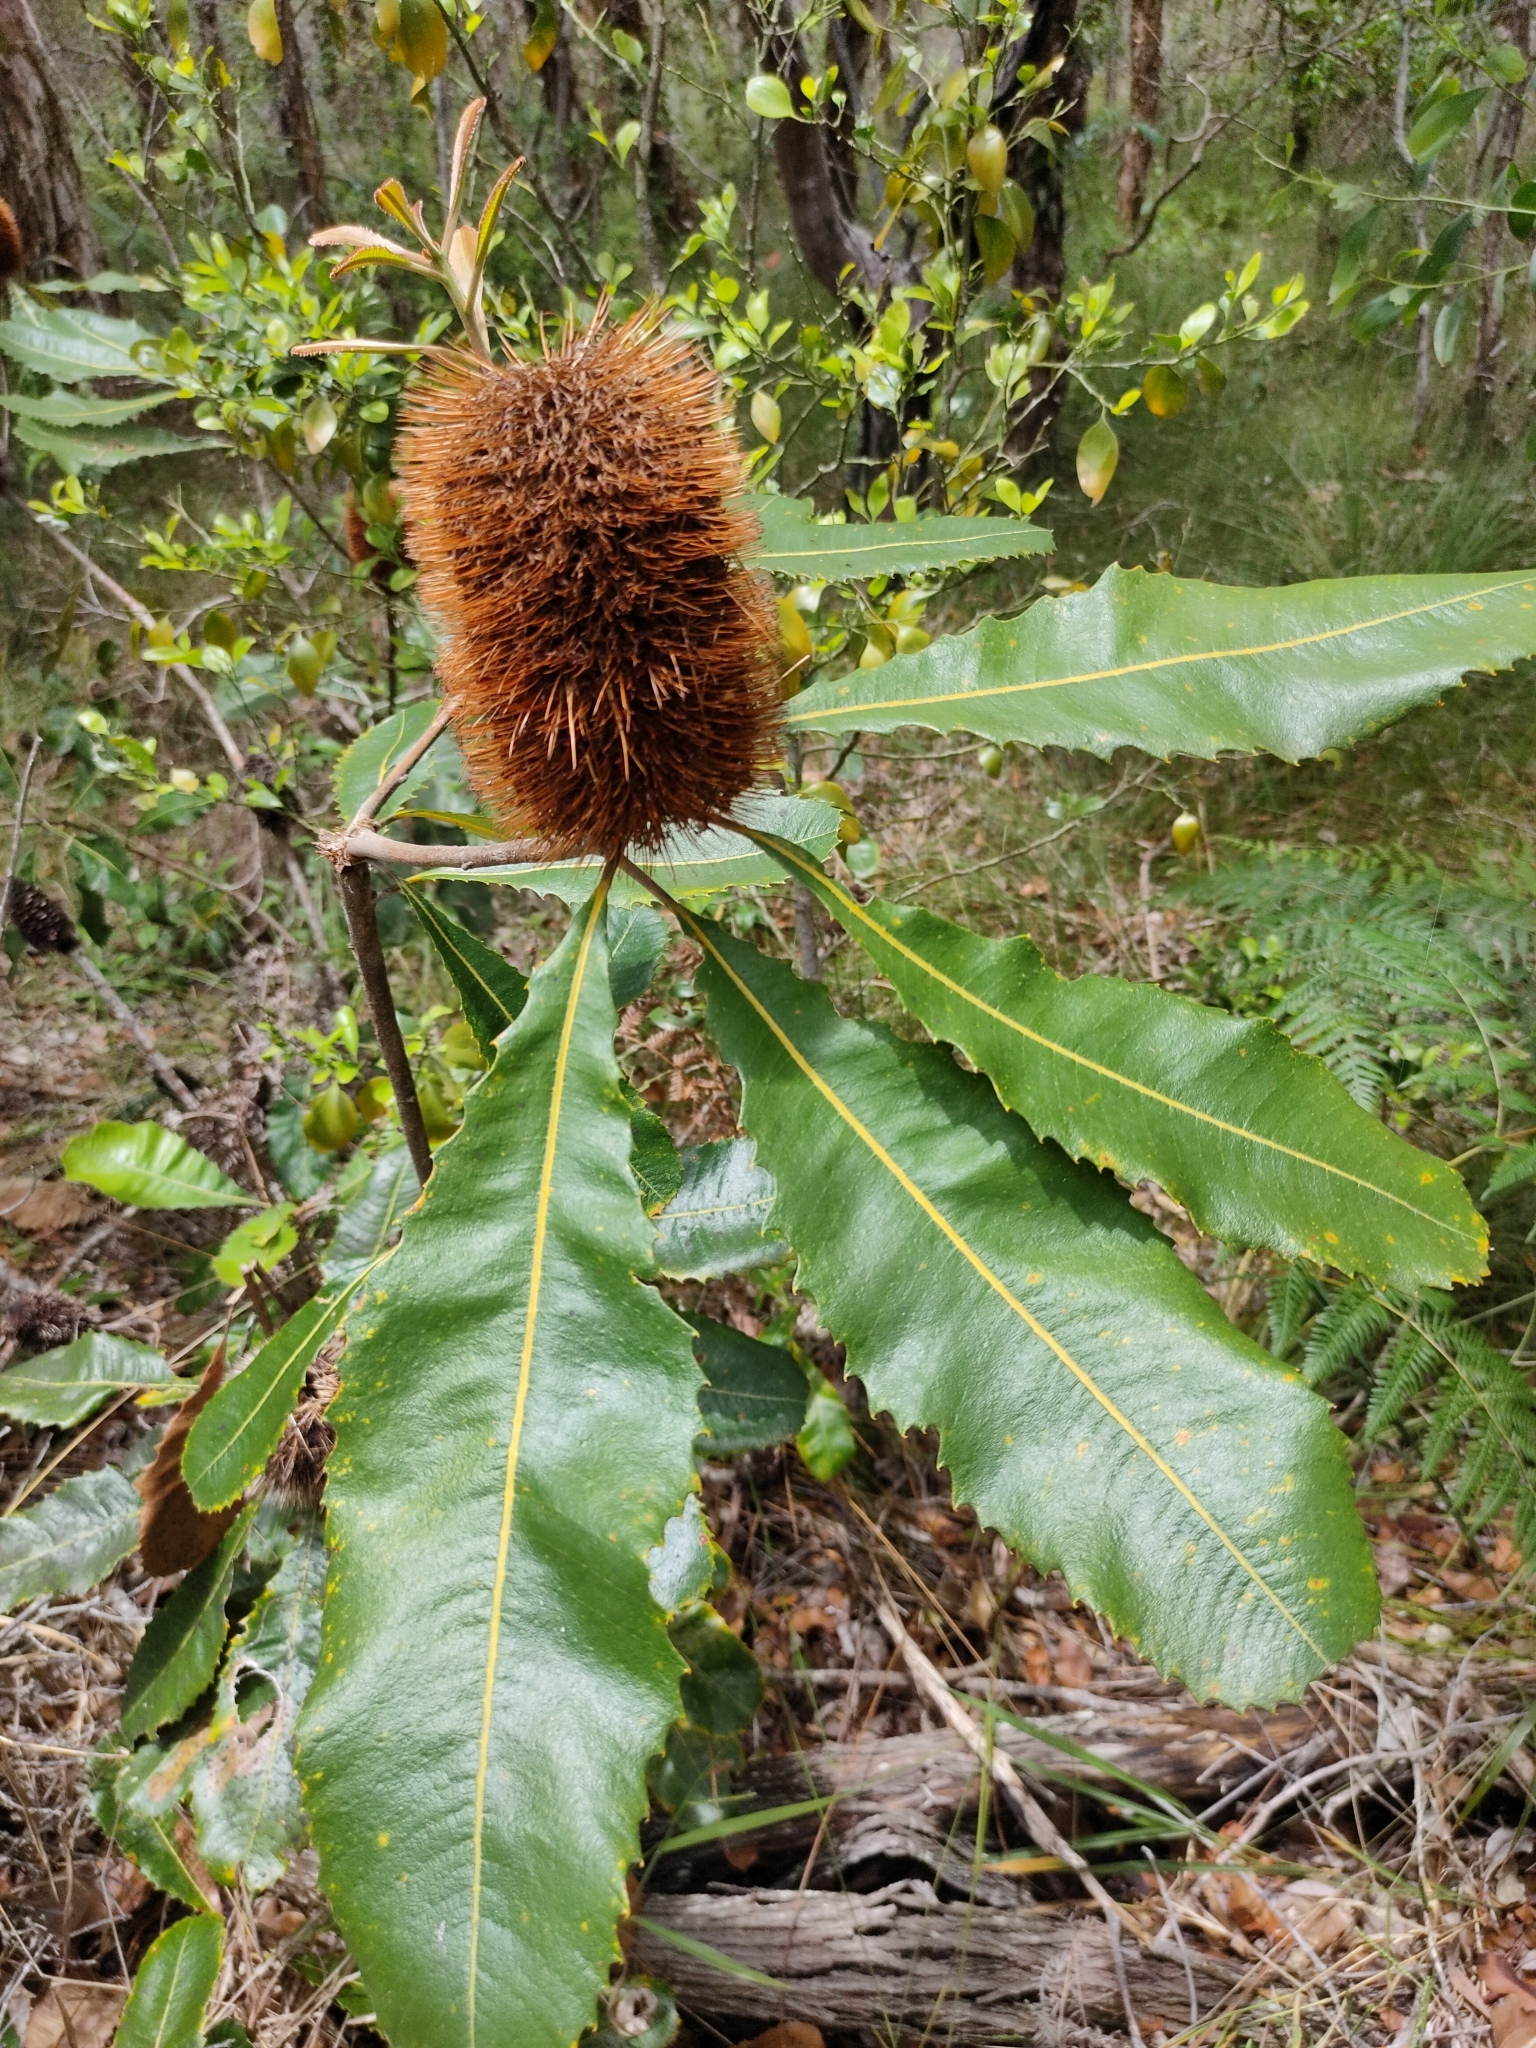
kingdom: Plantae
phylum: Tracheophyta
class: Magnoliopsida
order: Proteales
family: Proteaceae
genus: Banksia
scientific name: Banksia robur
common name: Broadleaf banksia
